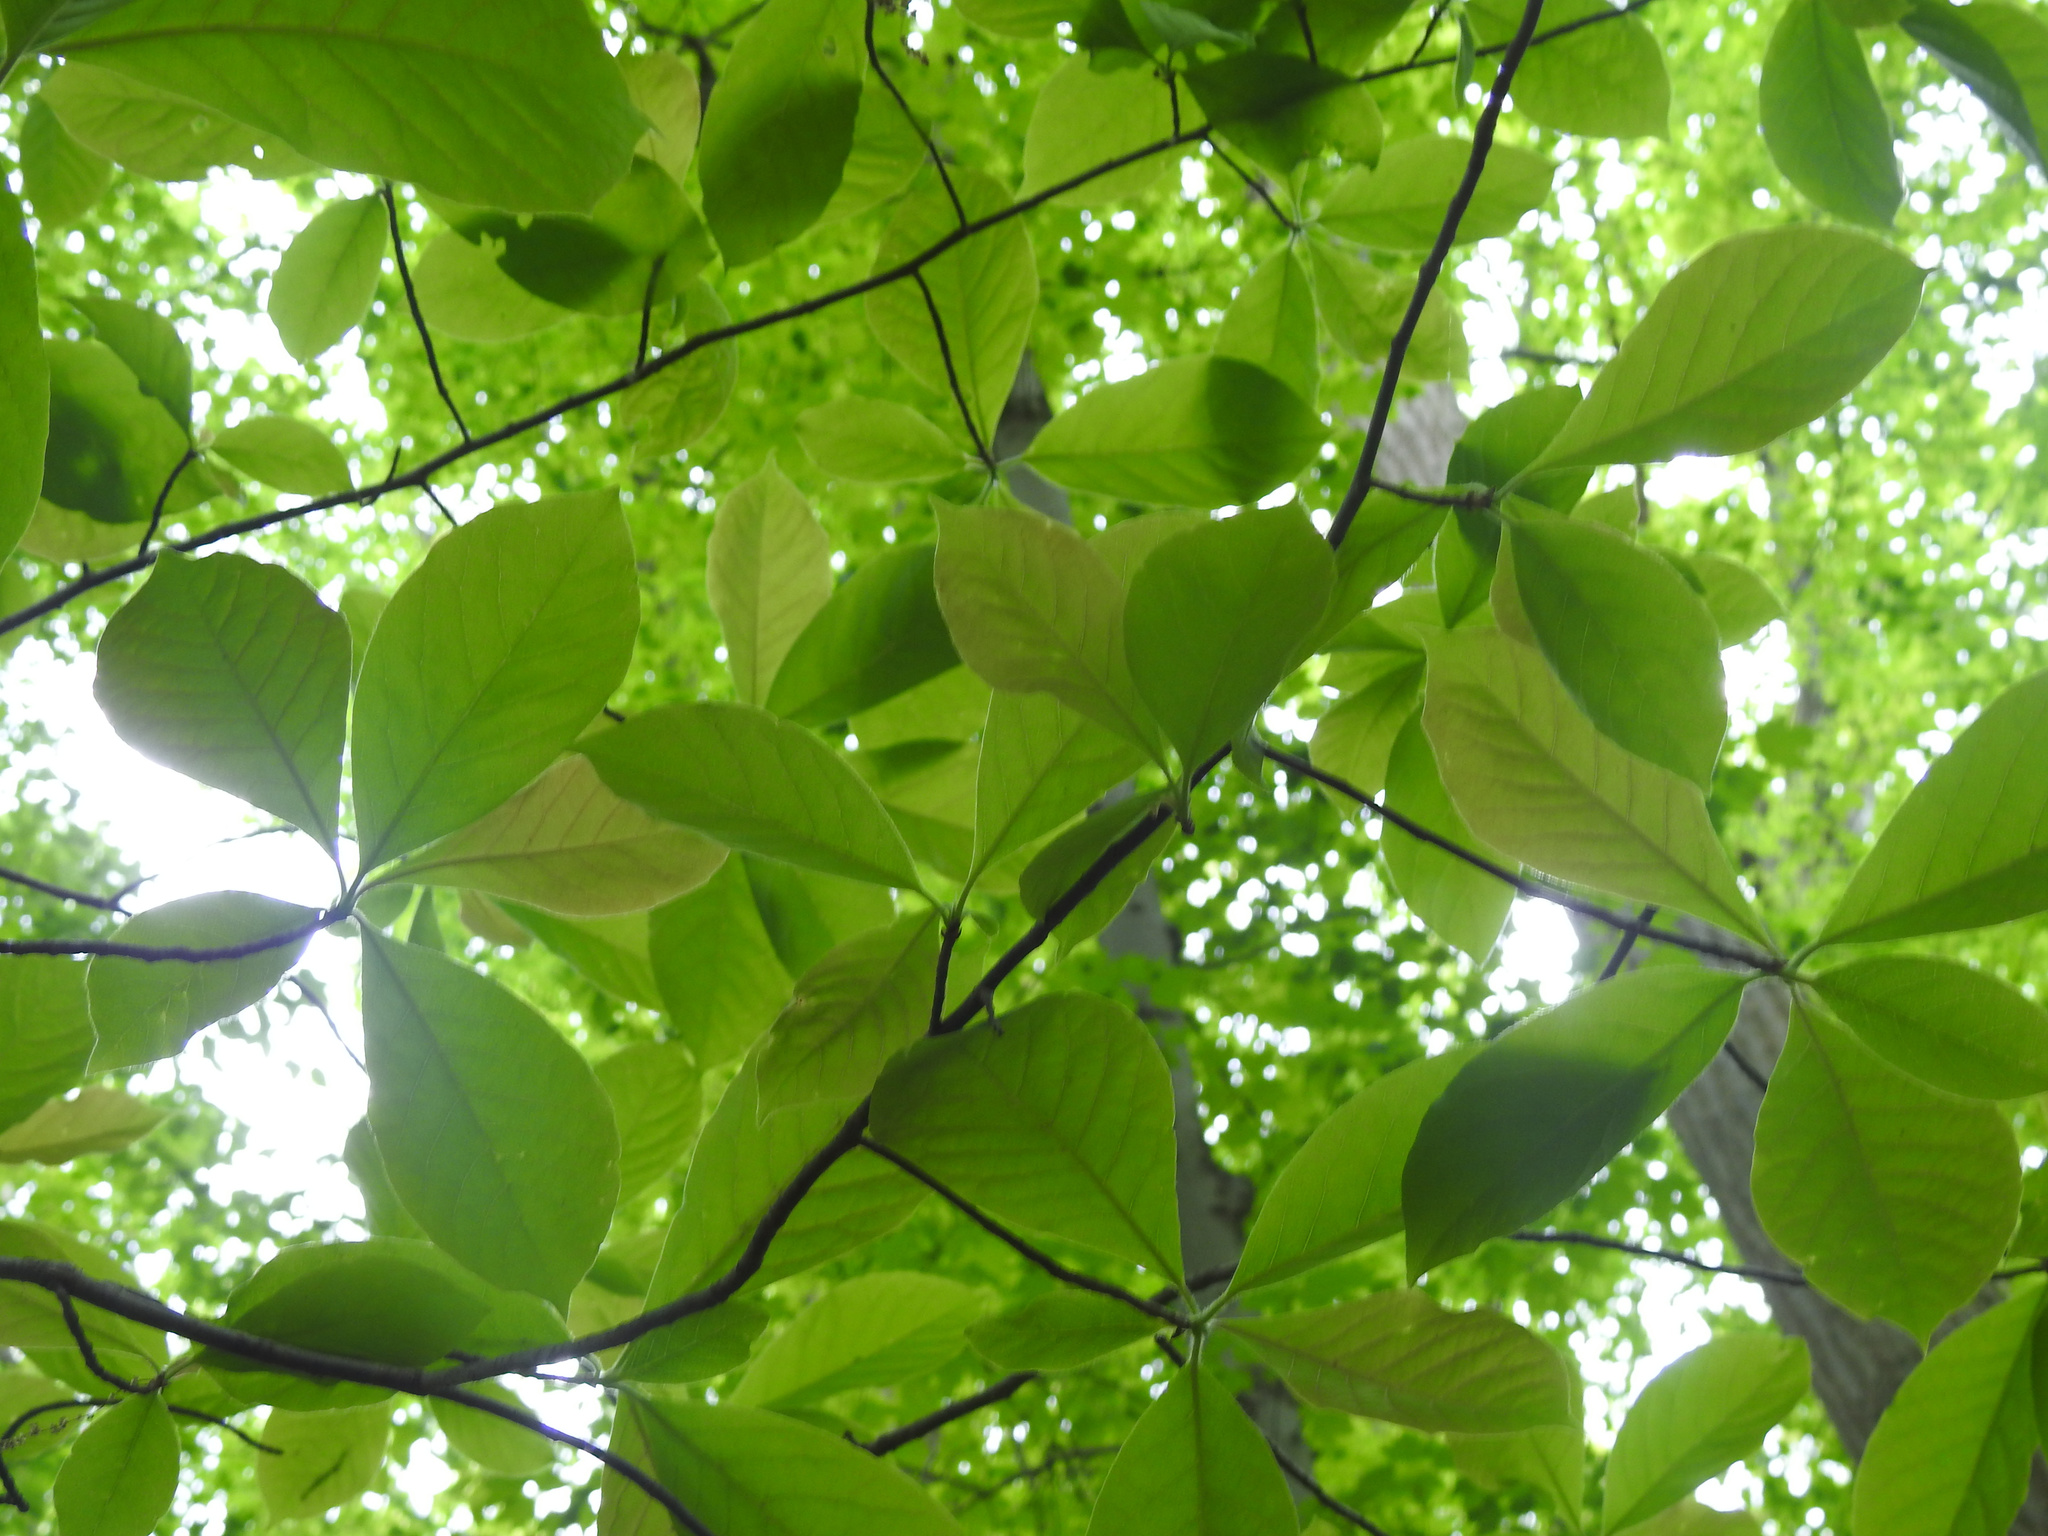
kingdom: Plantae
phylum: Tracheophyta
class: Magnoliopsida
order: Cornales
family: Nyssaceae
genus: Nyssa
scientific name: Nyssa sylvatica
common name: Black tupelo
